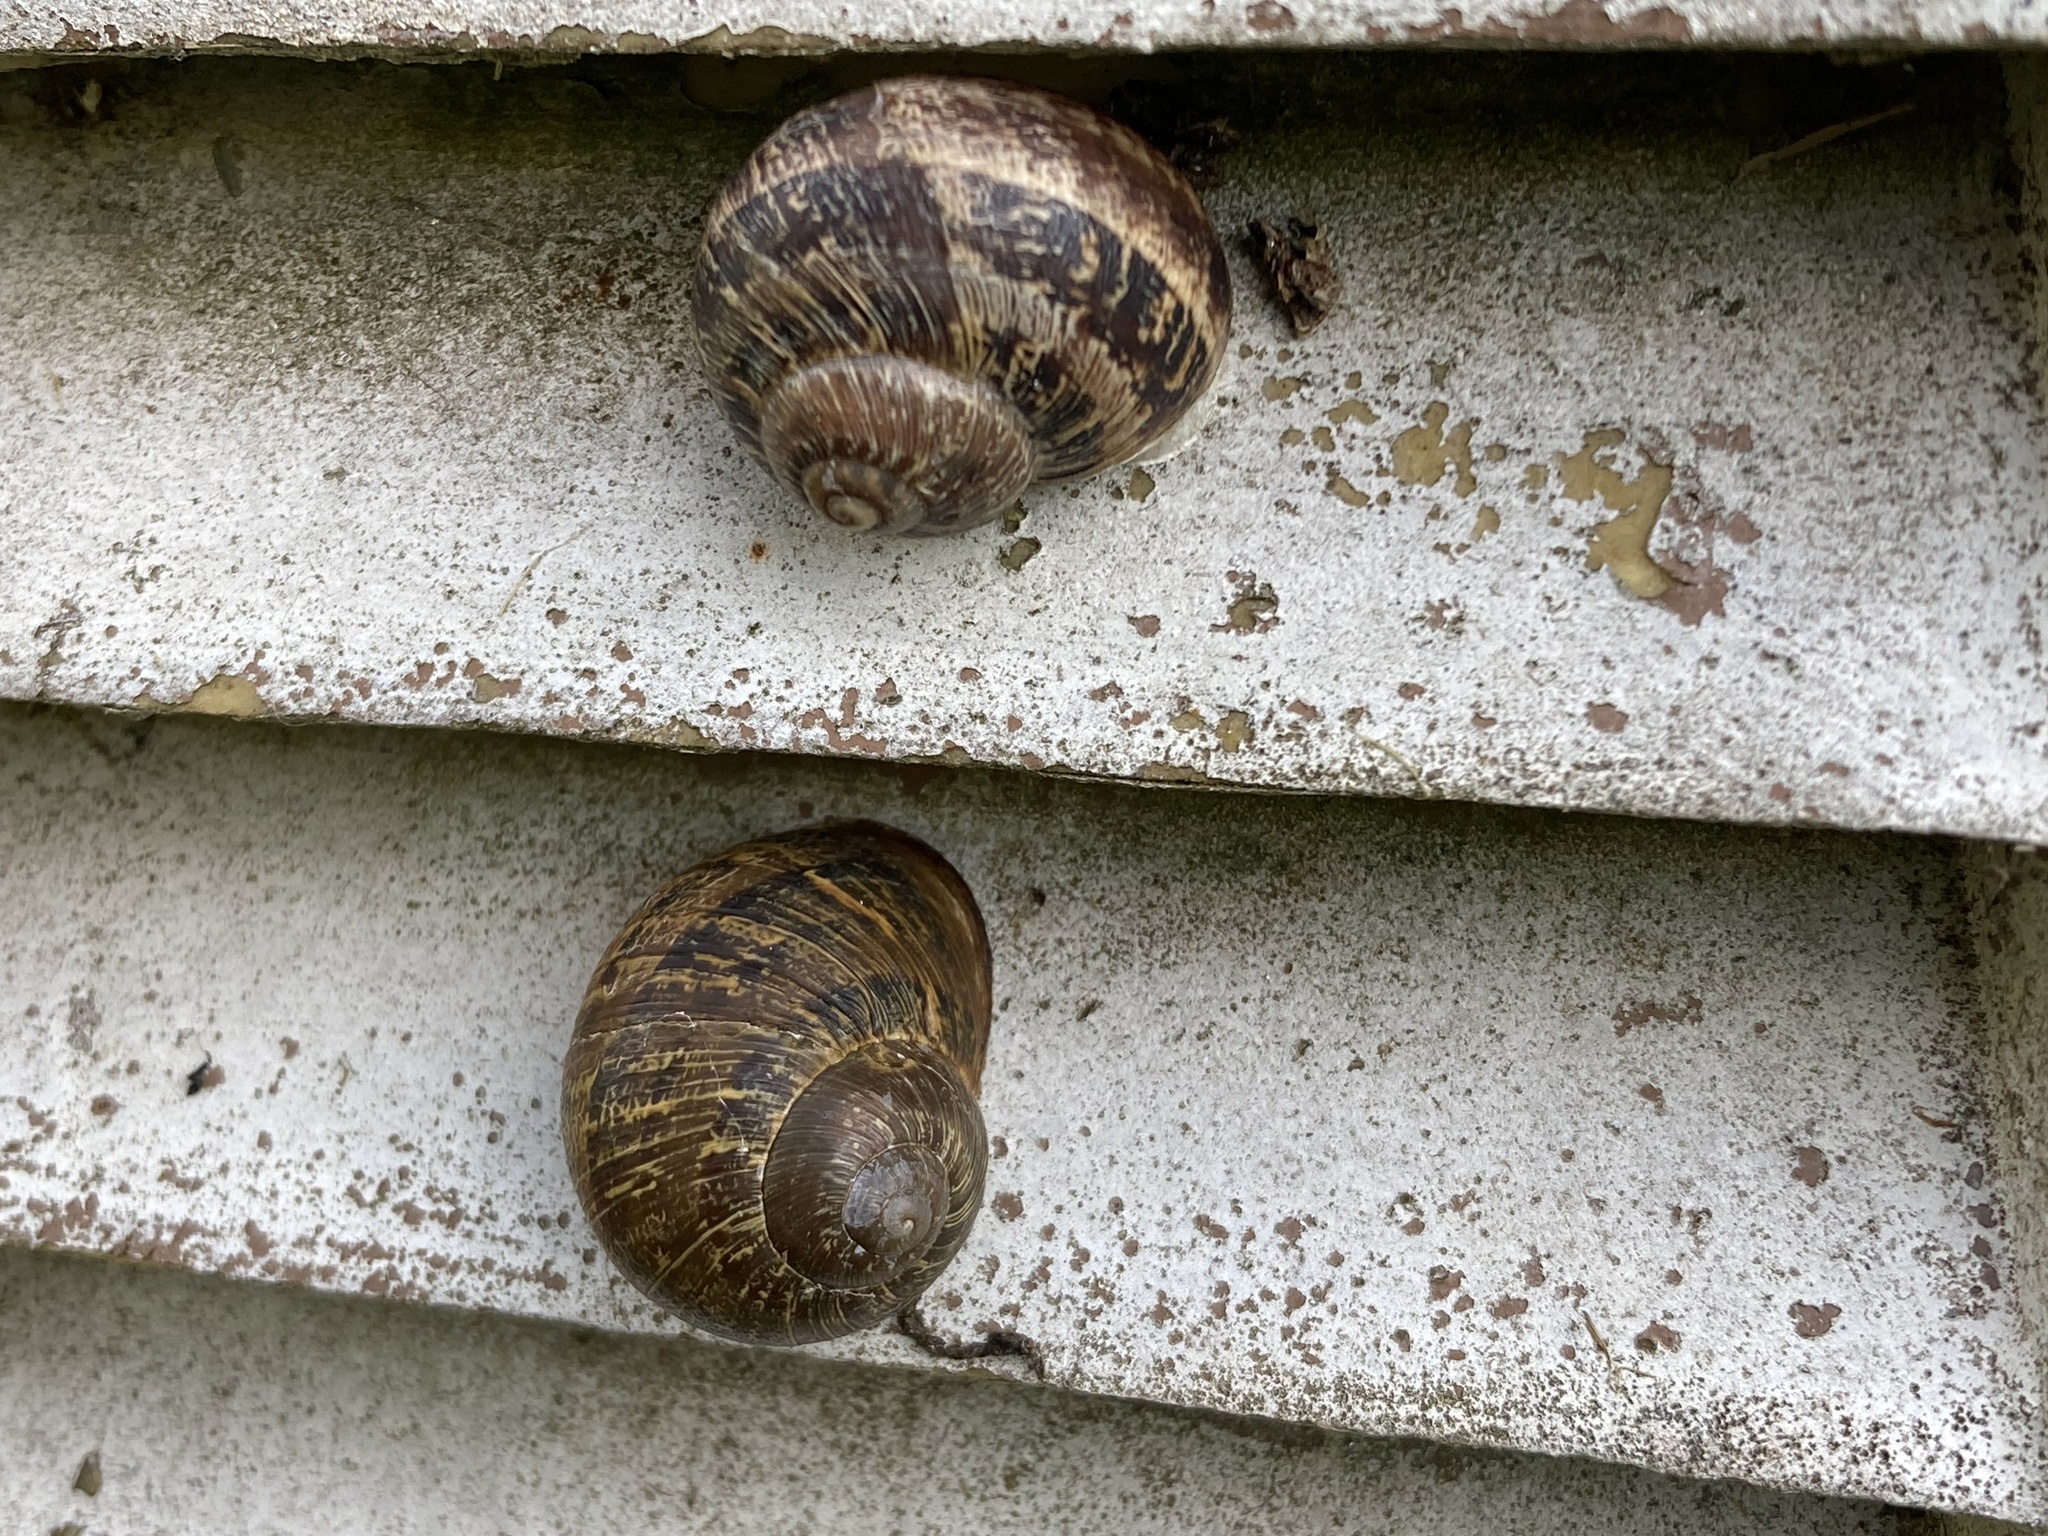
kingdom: Animalia
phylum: Mollusca
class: Gastropoda
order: Stylommatophora
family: Helicidae
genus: Cornu
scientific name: Cornu aspersum
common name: Brown garden snail
